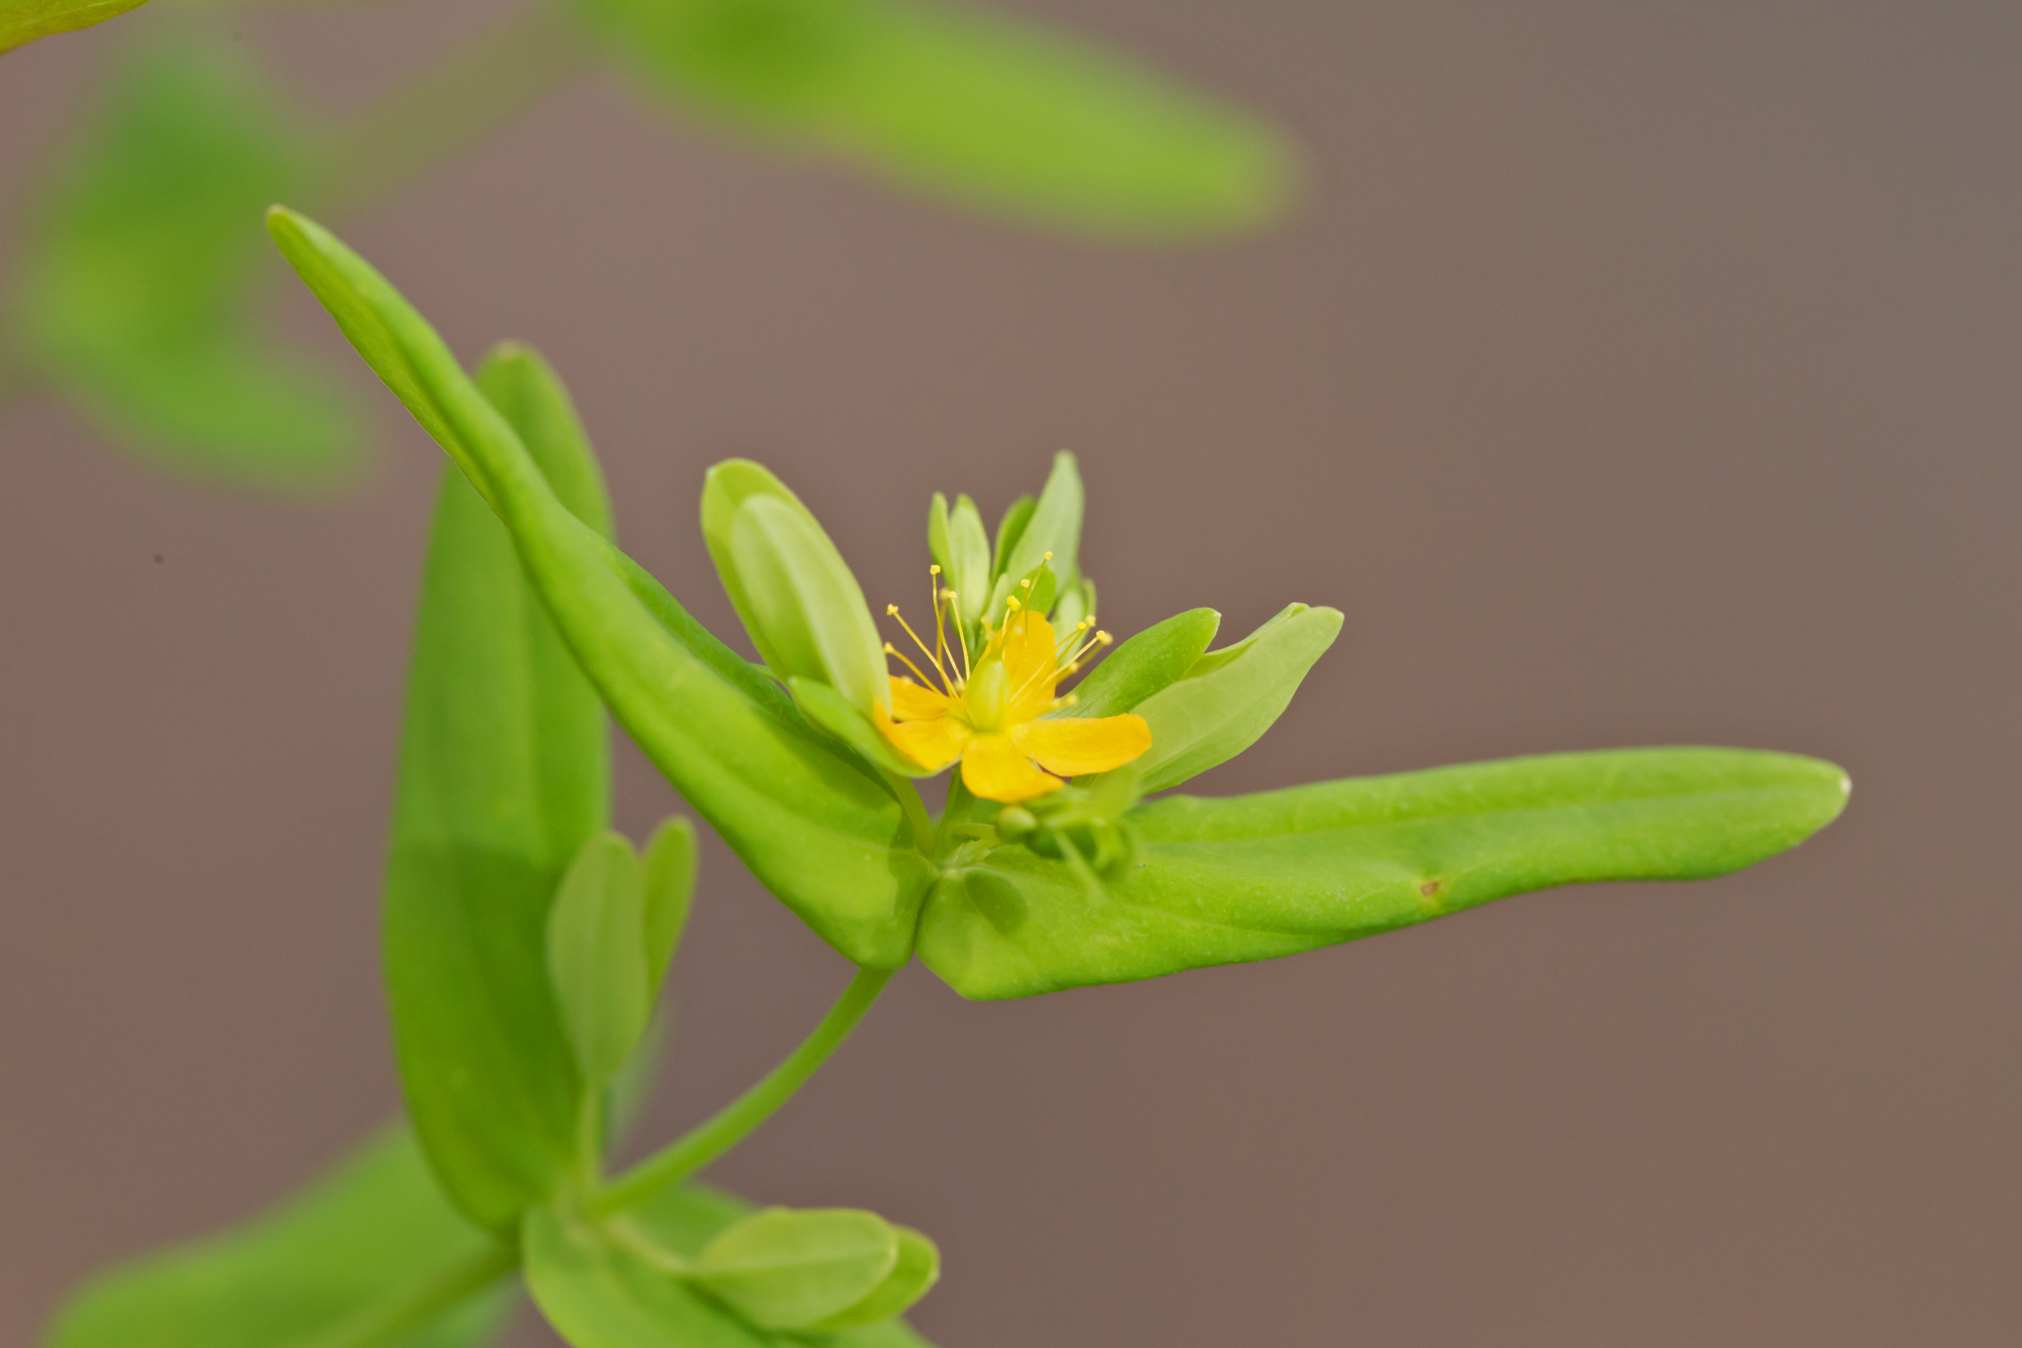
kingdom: Plantae
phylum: Tracheophyta
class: Magnoliopsida
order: Malpighiales
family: Hypericaceae
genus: Hypericum
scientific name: Hypericum mutilum
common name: Dwarf st. john's-wort
